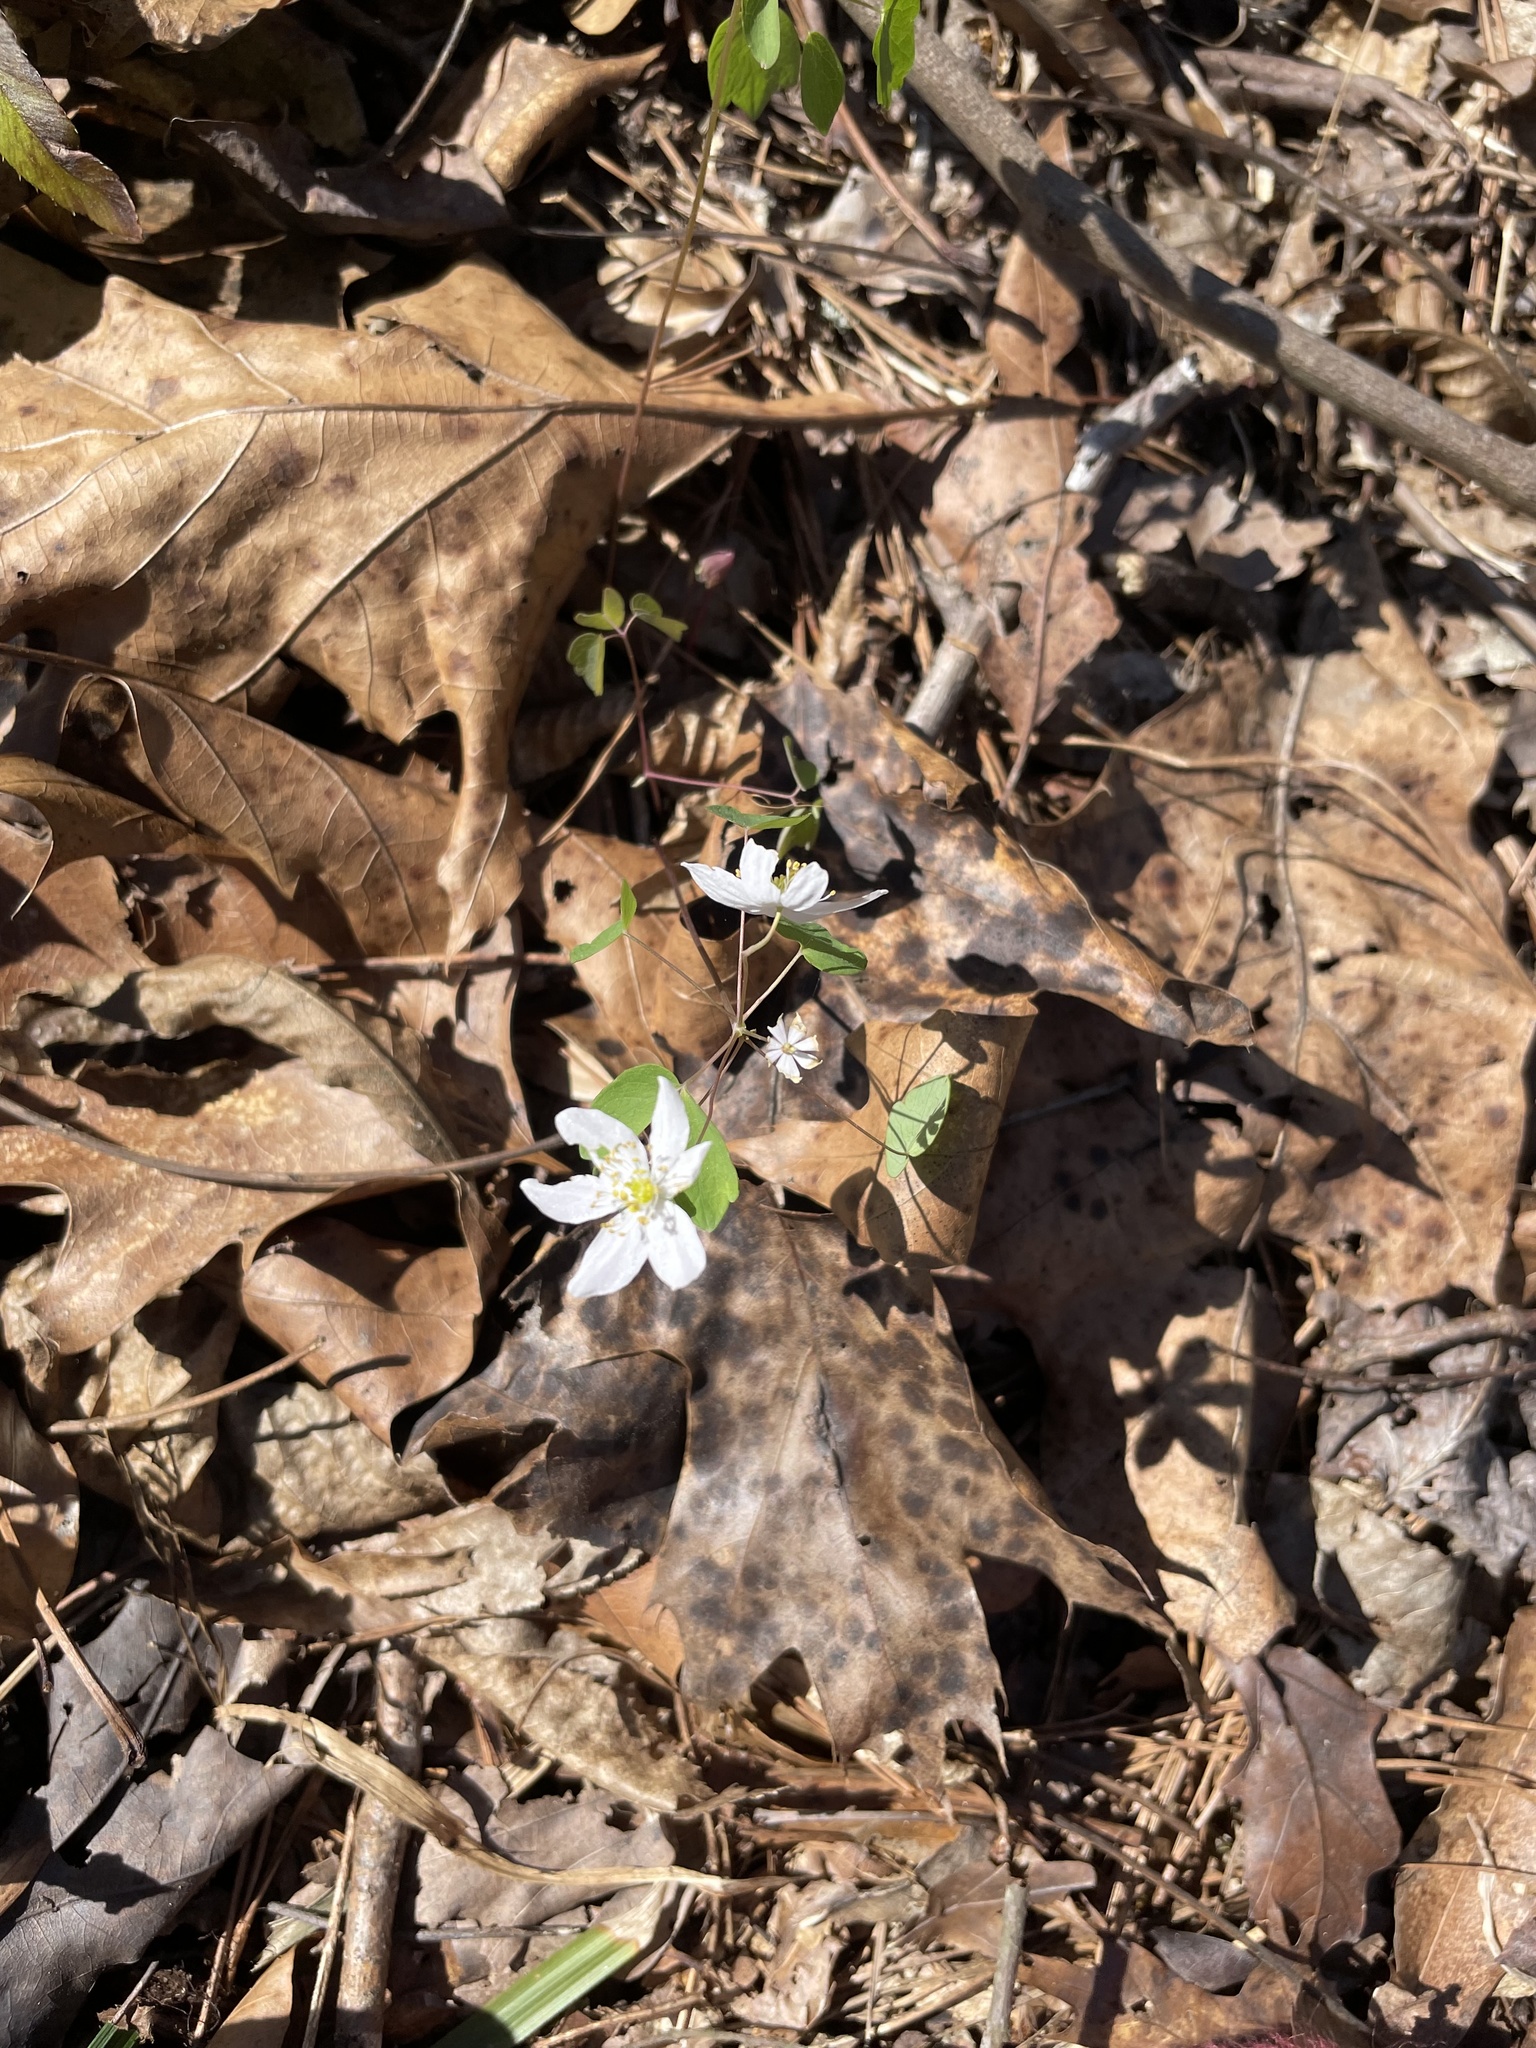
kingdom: Plantae
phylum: Tracheophyta
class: Magnoliopsida
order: Ranunculales
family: Ranunculaceae
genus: Thalictrum
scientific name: Thalictrum thalictroides
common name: Rue-anemone
